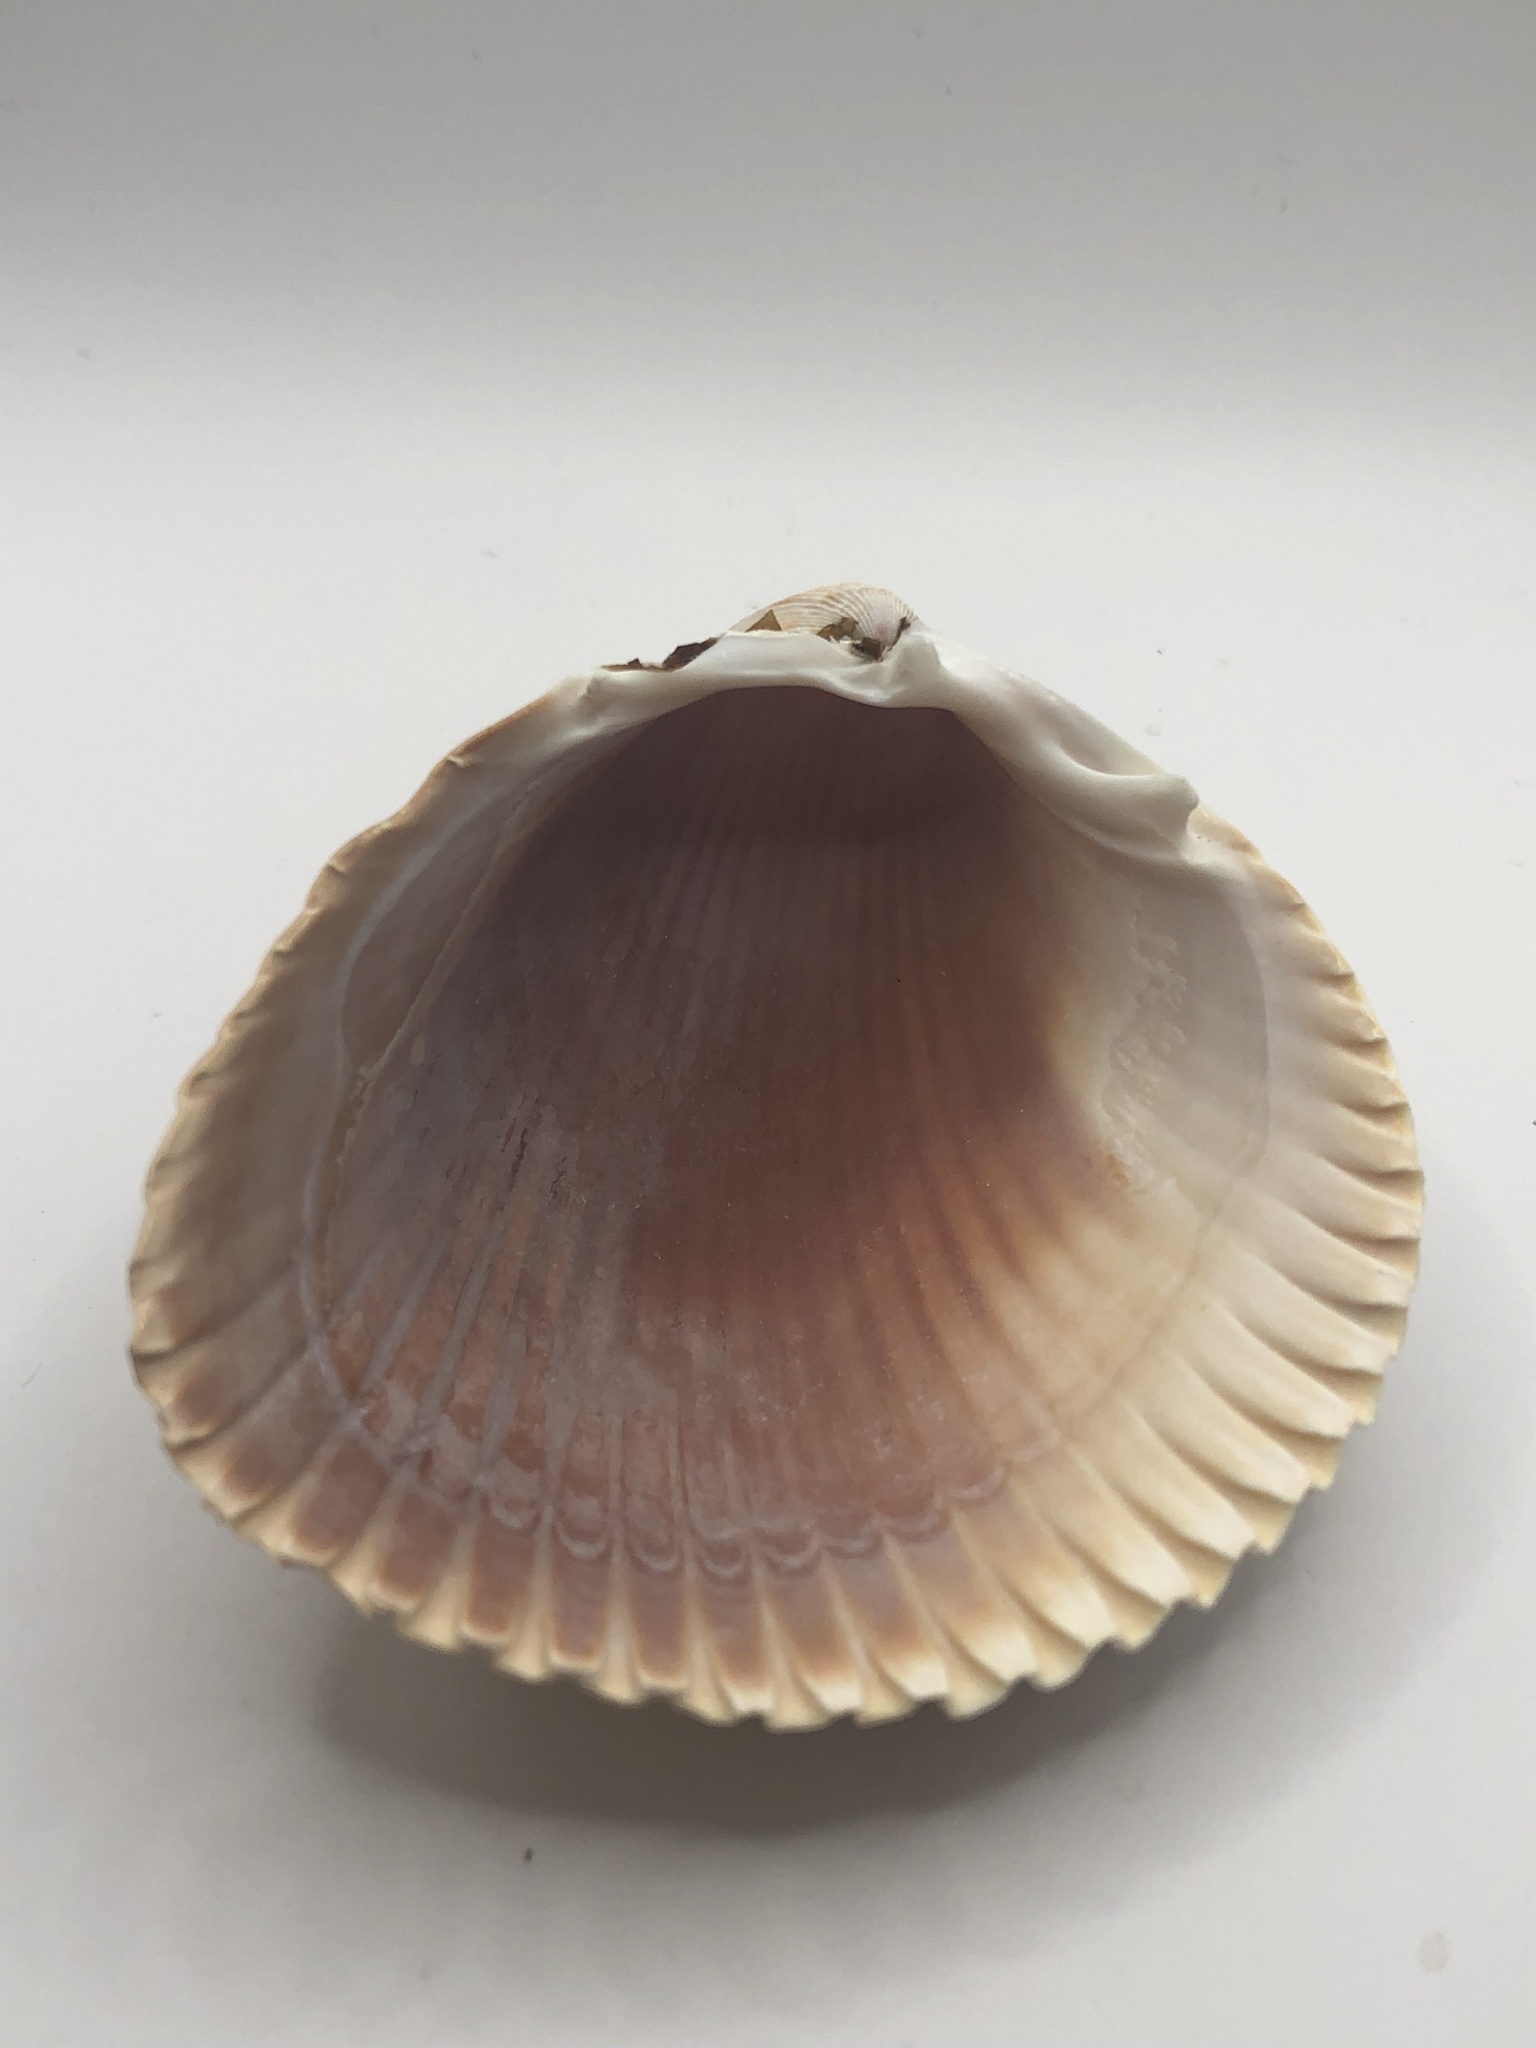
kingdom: Animalia
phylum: Mollusca
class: Bivalvia
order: Cardiida
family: Cardiidae
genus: Dinocardium
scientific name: Dinocardium robustum
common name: Atlantic giant cockle
